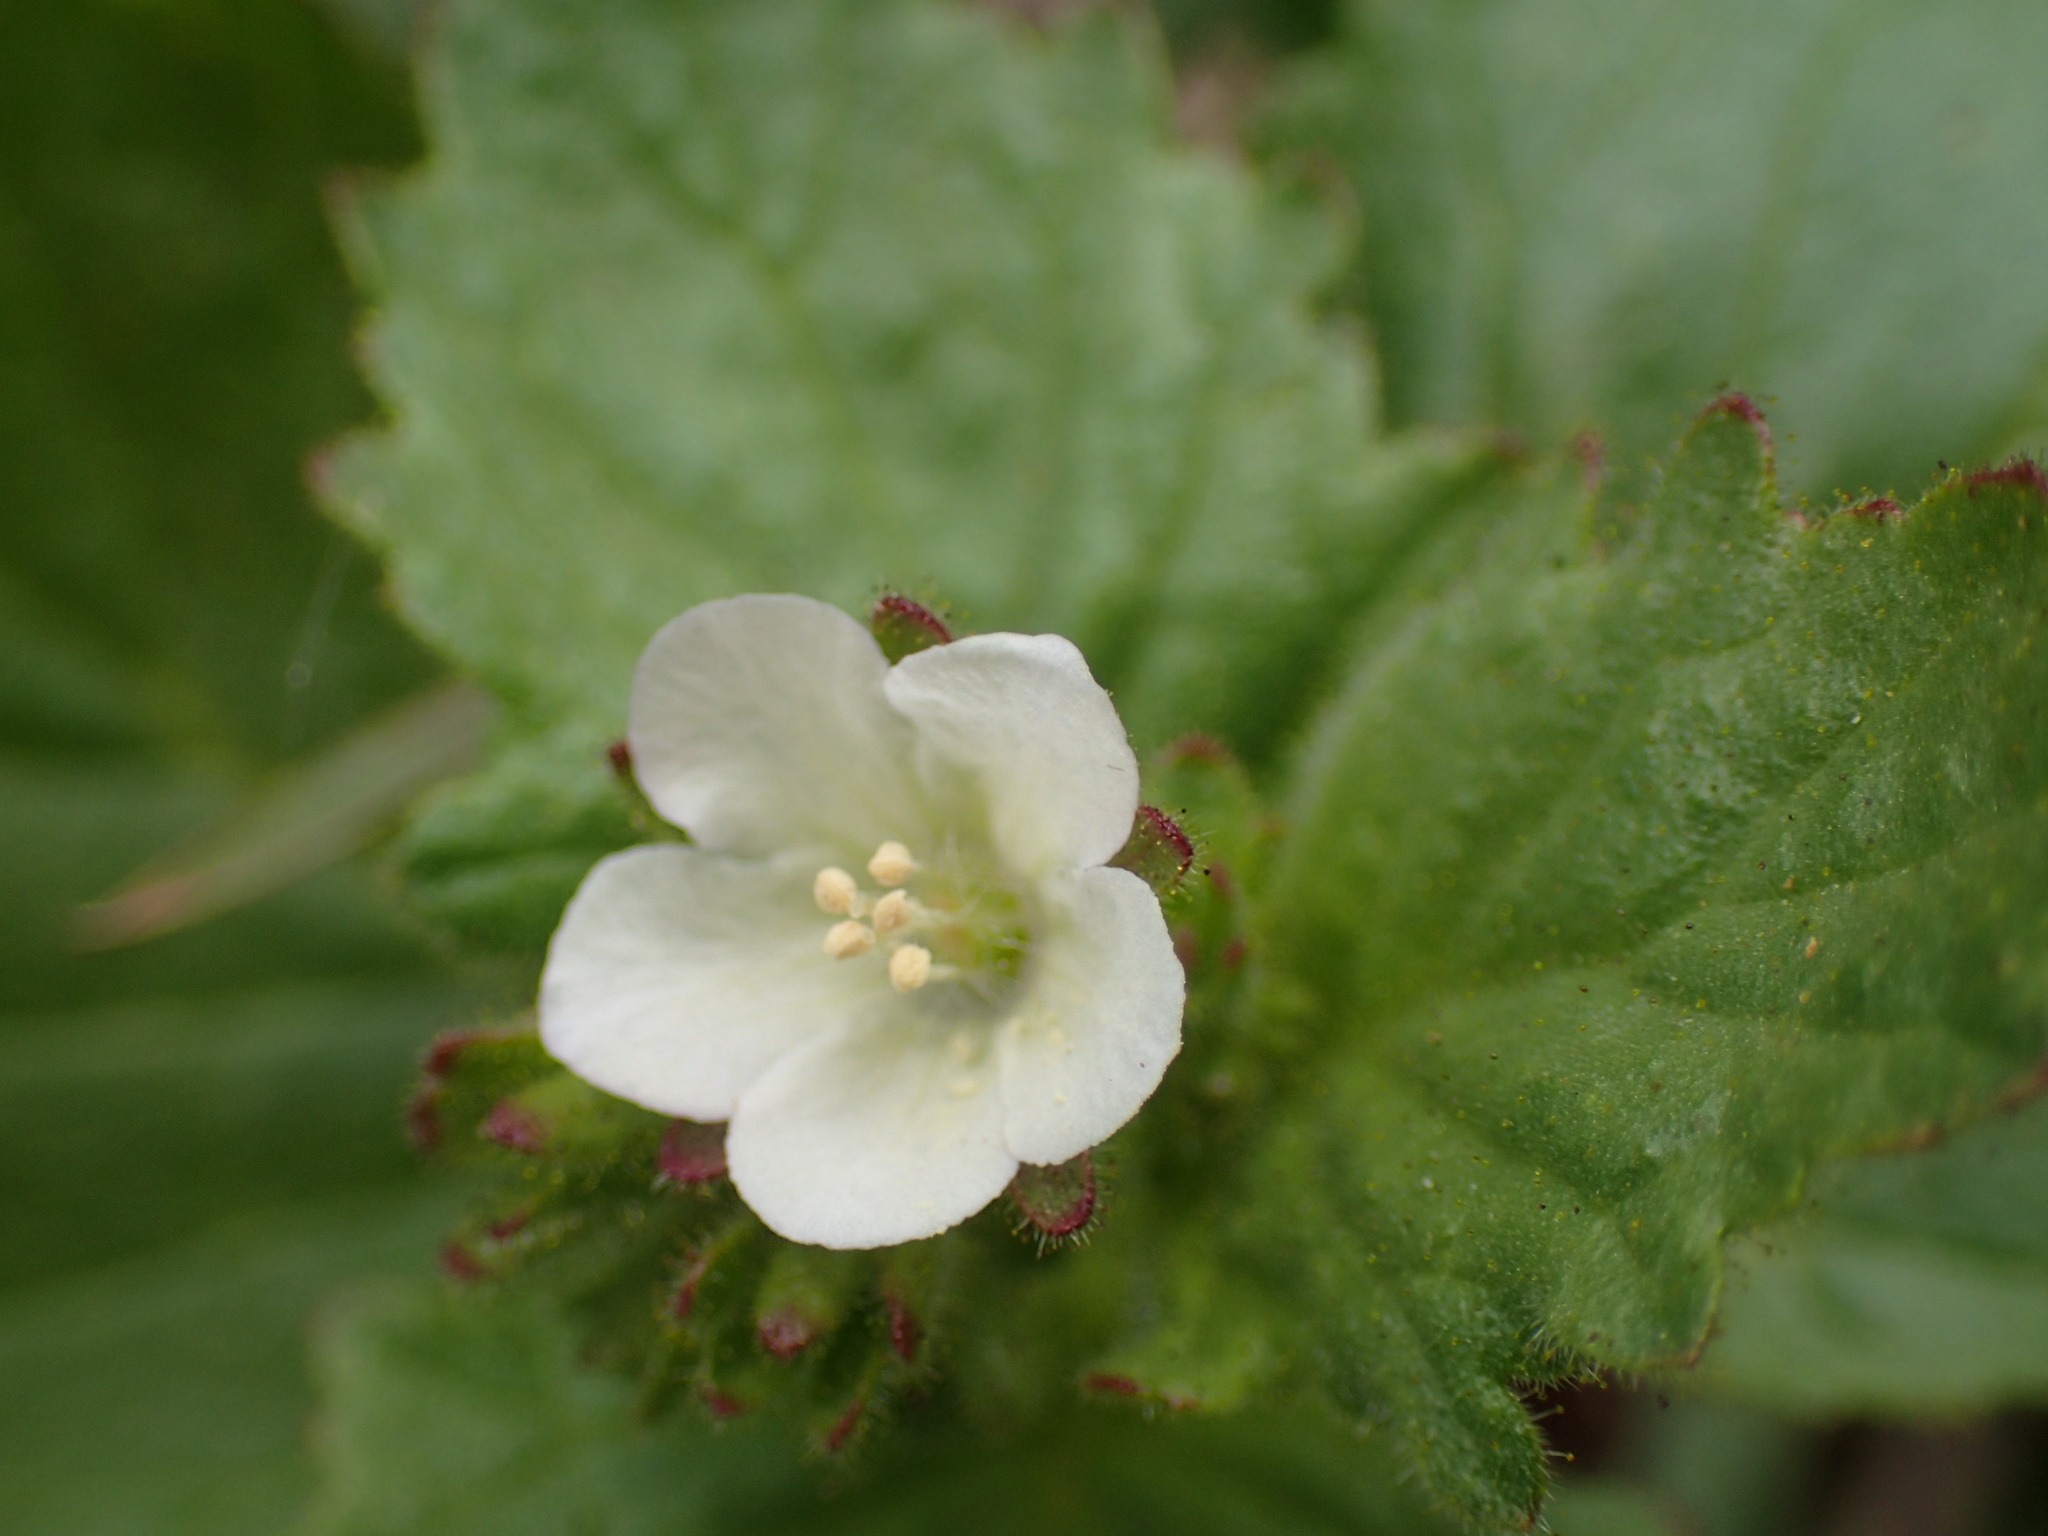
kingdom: Plantae
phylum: Tracheophyta
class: Magnoliopsida
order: Boraginales
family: Hydrophyllaceae
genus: Phacelia
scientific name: Phacelia viscida
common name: Sticky phacelia
